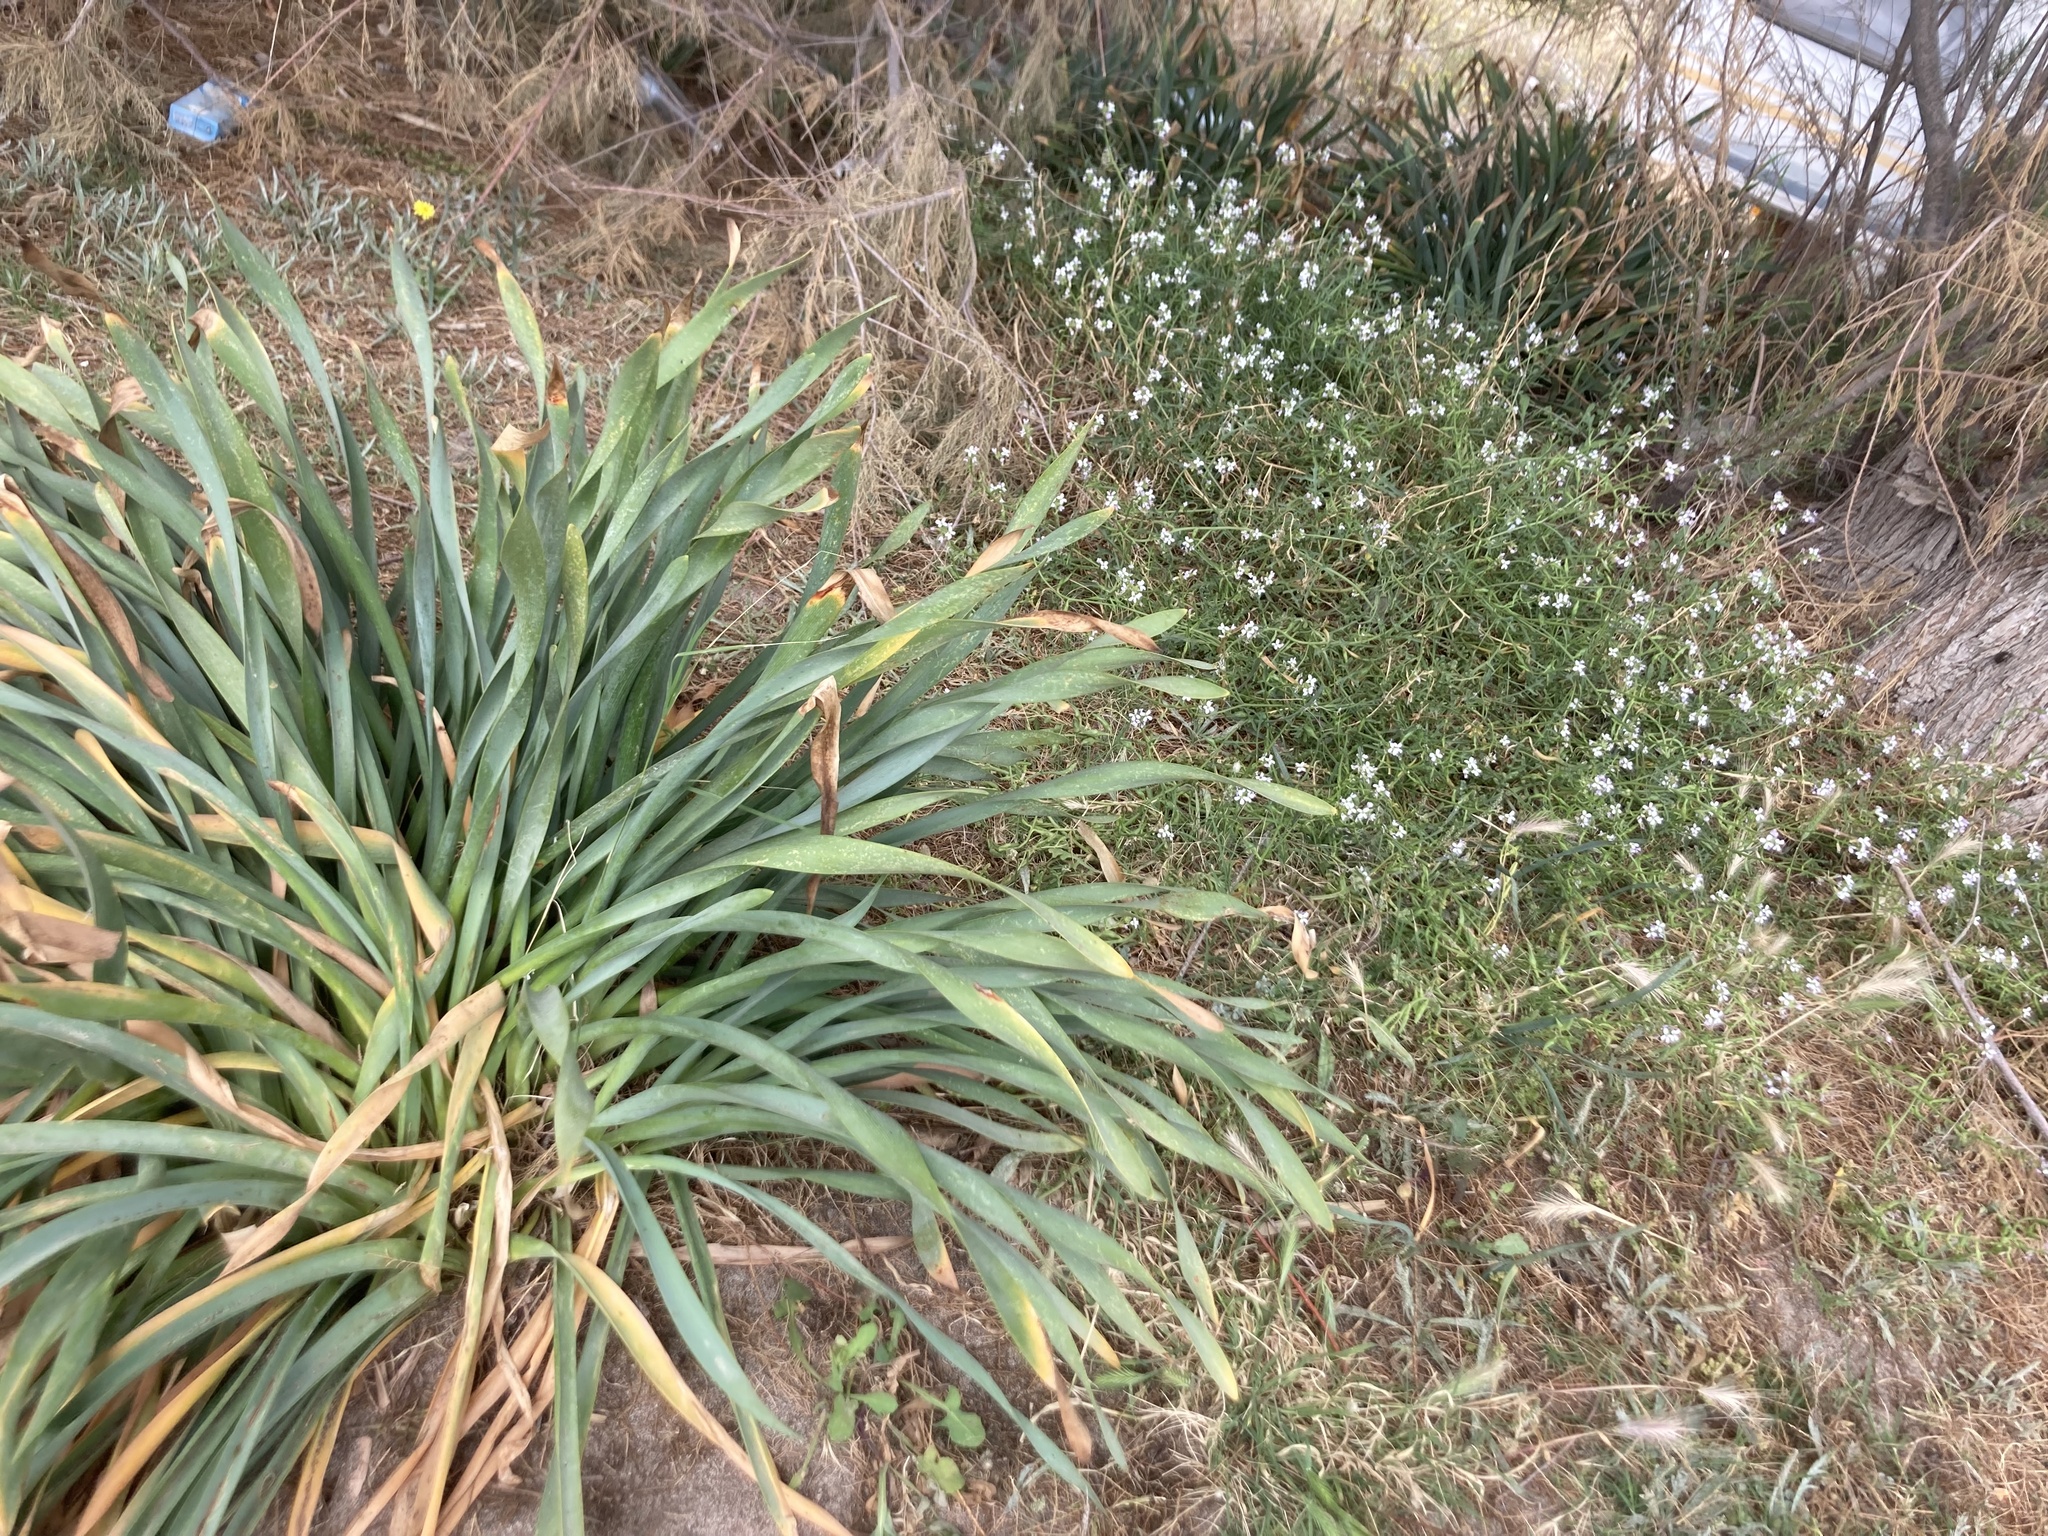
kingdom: Plantae
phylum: Tracheophyta
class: Liliopsida
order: Asparagales
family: Amaryllidaceae
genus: Pancratium
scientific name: Pancratium maritimum
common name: Sea-daffodil
